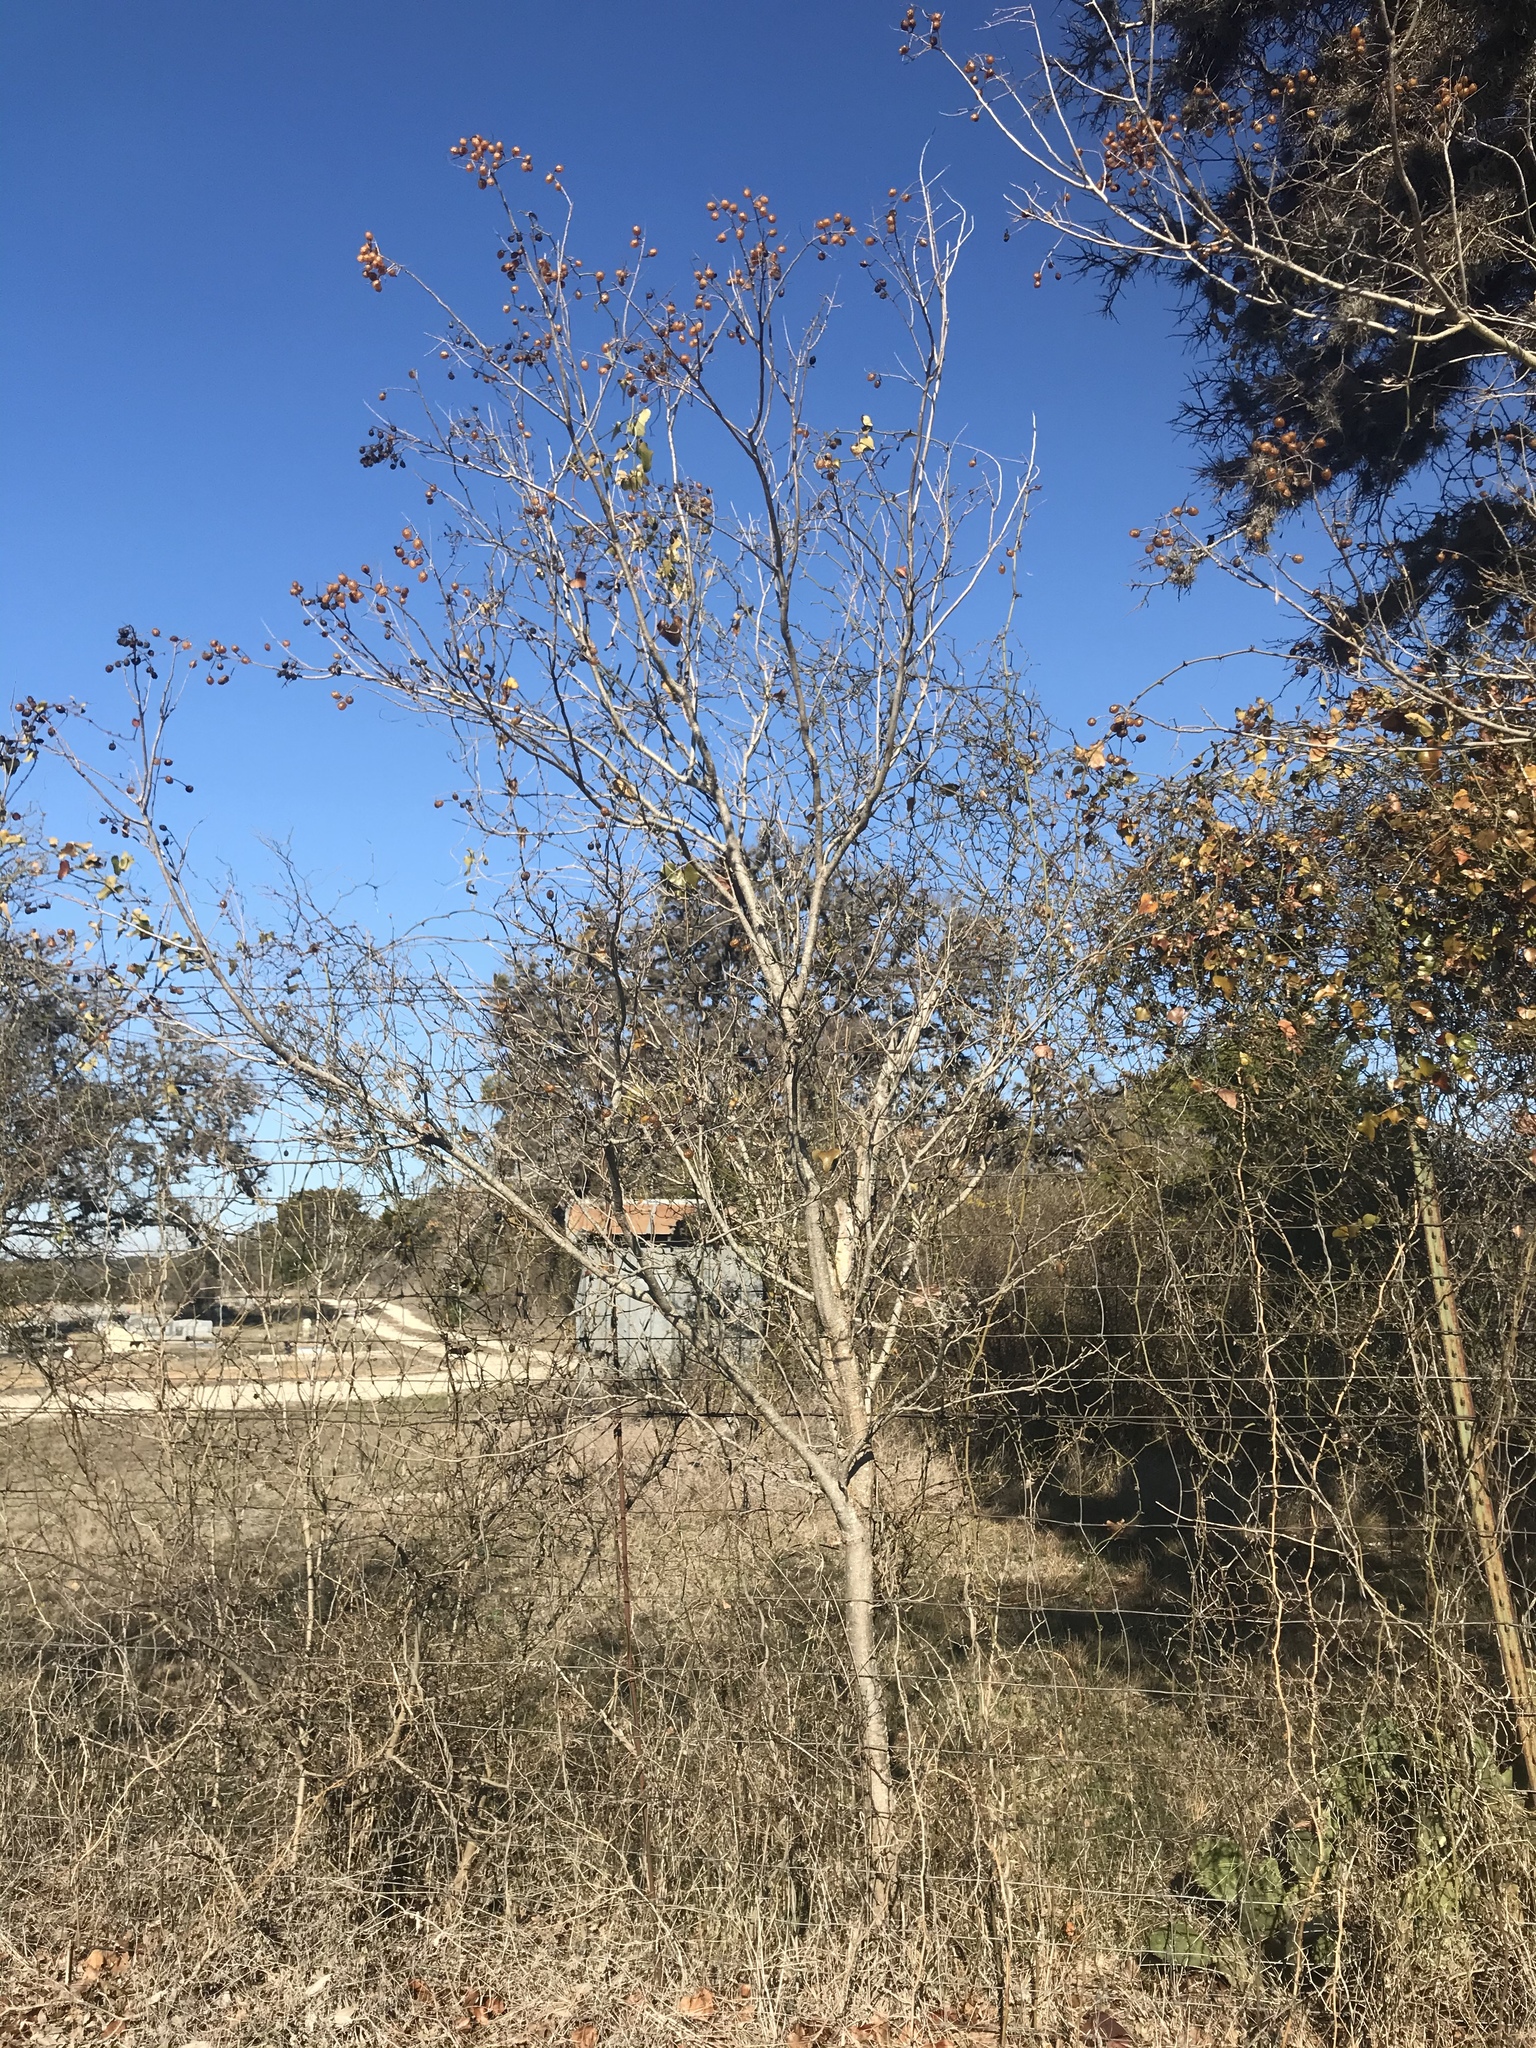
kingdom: Plantae
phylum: Tracheophyta
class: Magnoliopsida
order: Sapindales
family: Sapindaceae
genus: Sapindus
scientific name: Sapindus drummondii
